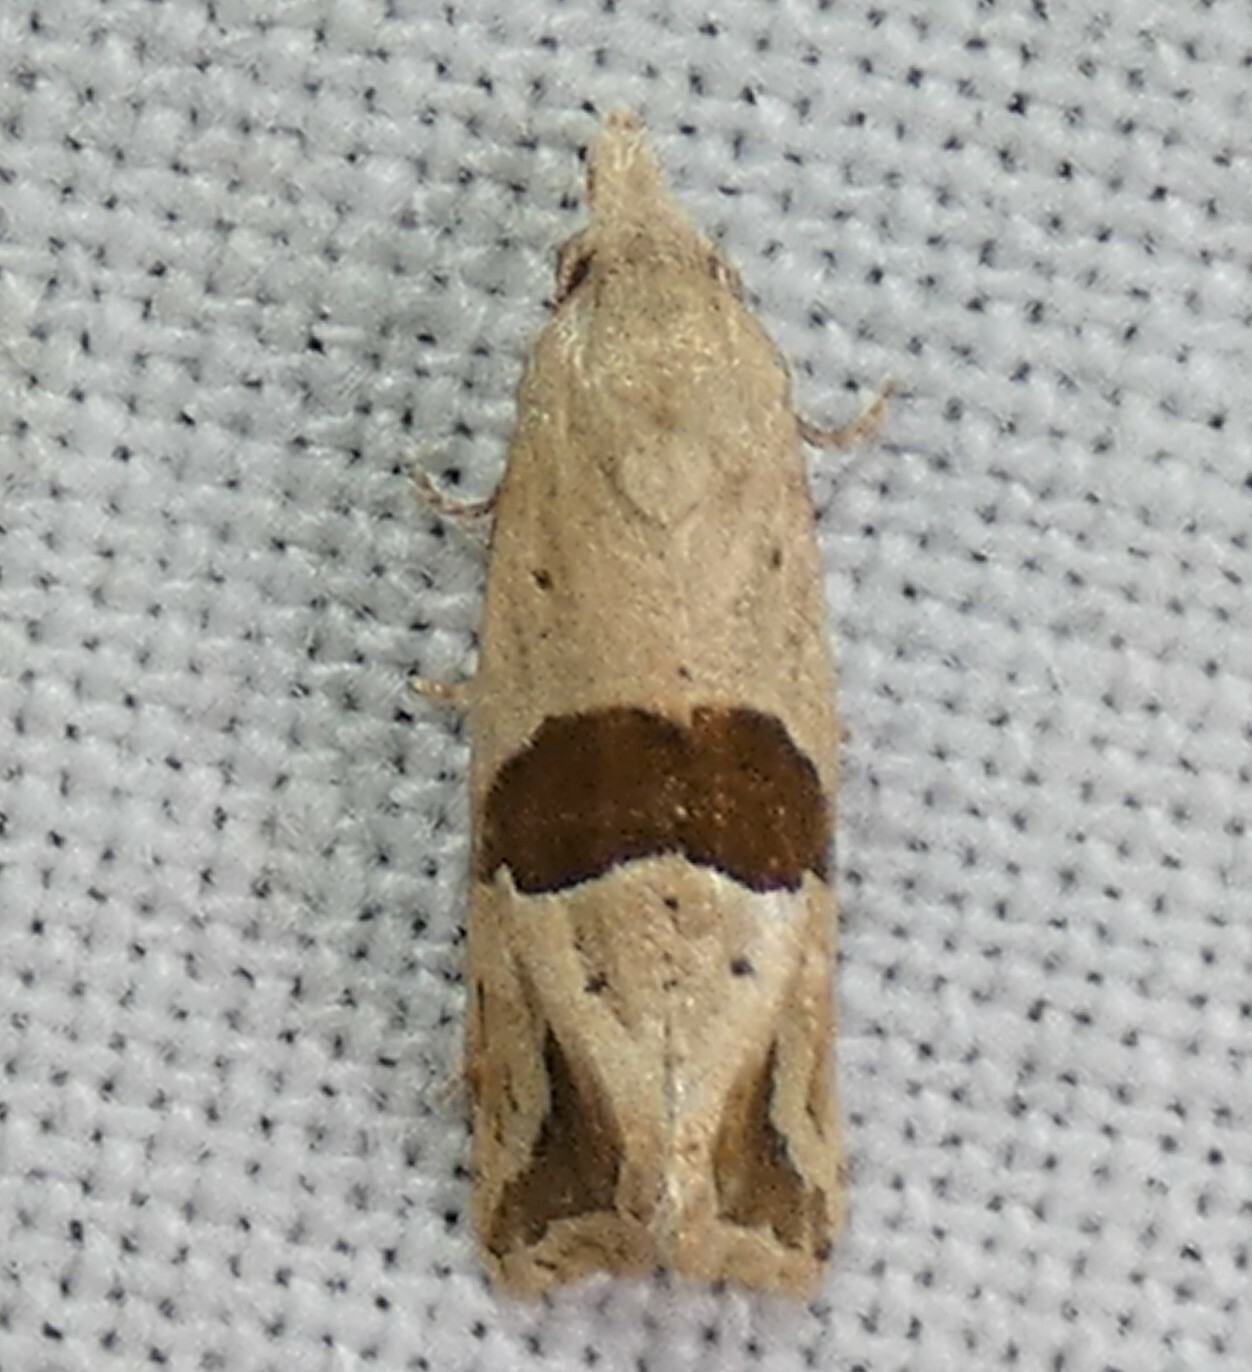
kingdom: Animalia
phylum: Arthropoda
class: Insecta
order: Lepidoptera
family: Tortricidae
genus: Eugnosta
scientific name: Eugnosta sartana
